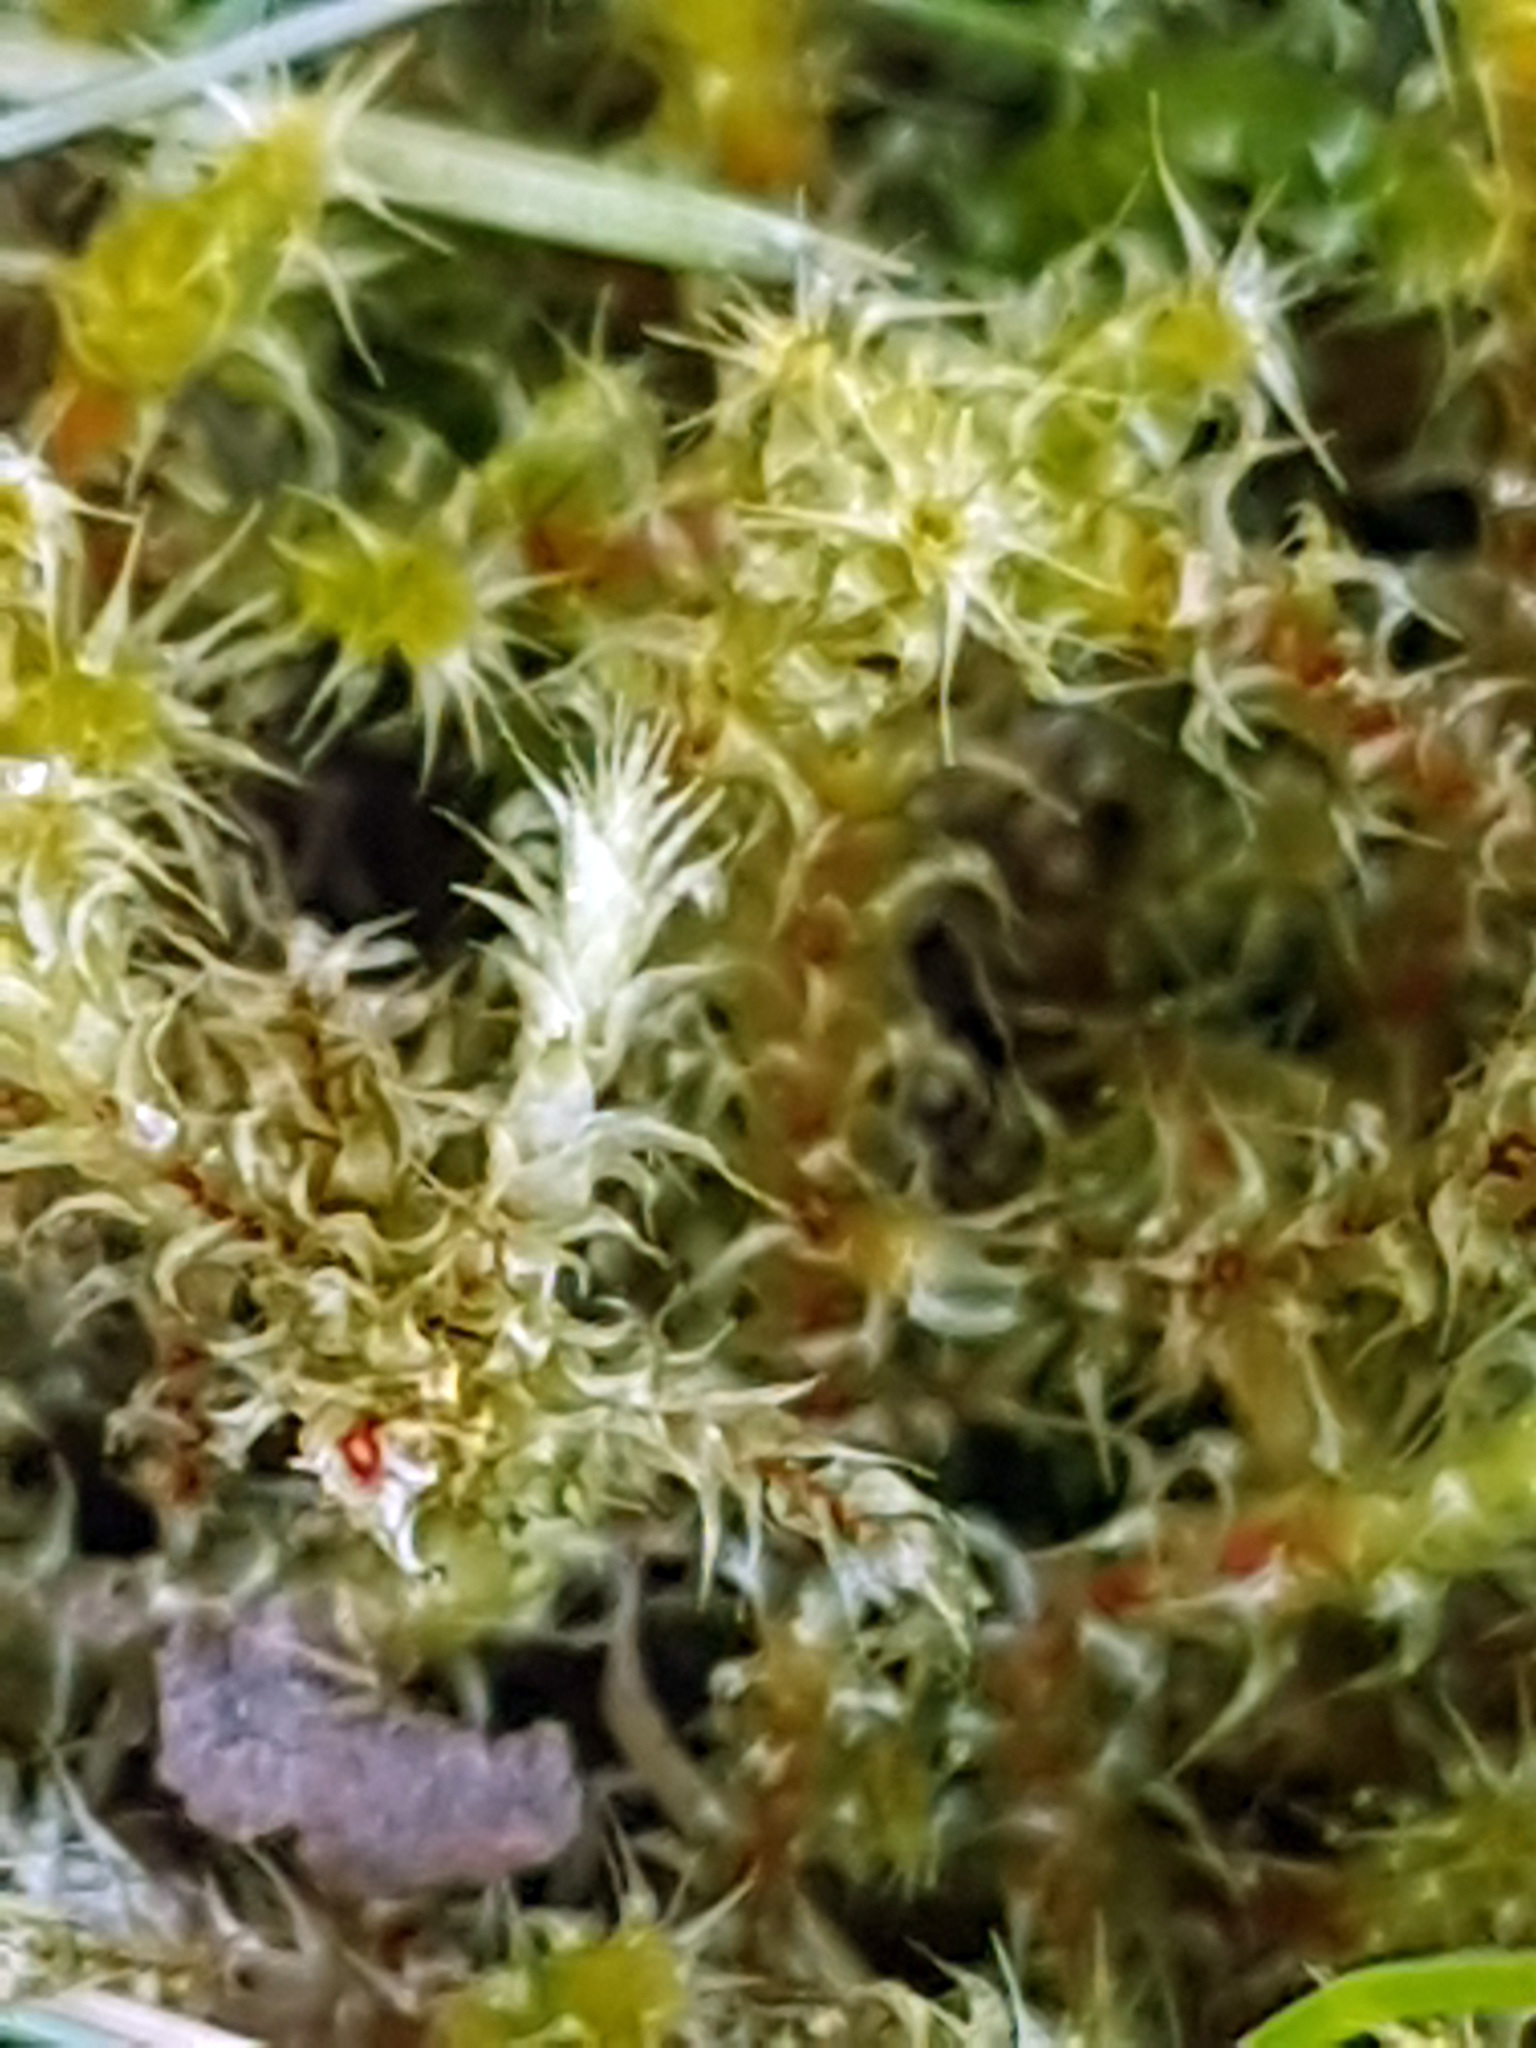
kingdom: Plantae
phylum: Bryophyta
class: Bryopsida
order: Hypnales
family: Hylocomiaceae
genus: Rhytidiadelphus
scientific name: Rhytidiadelphus squarrosus
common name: Springy turf-moss
